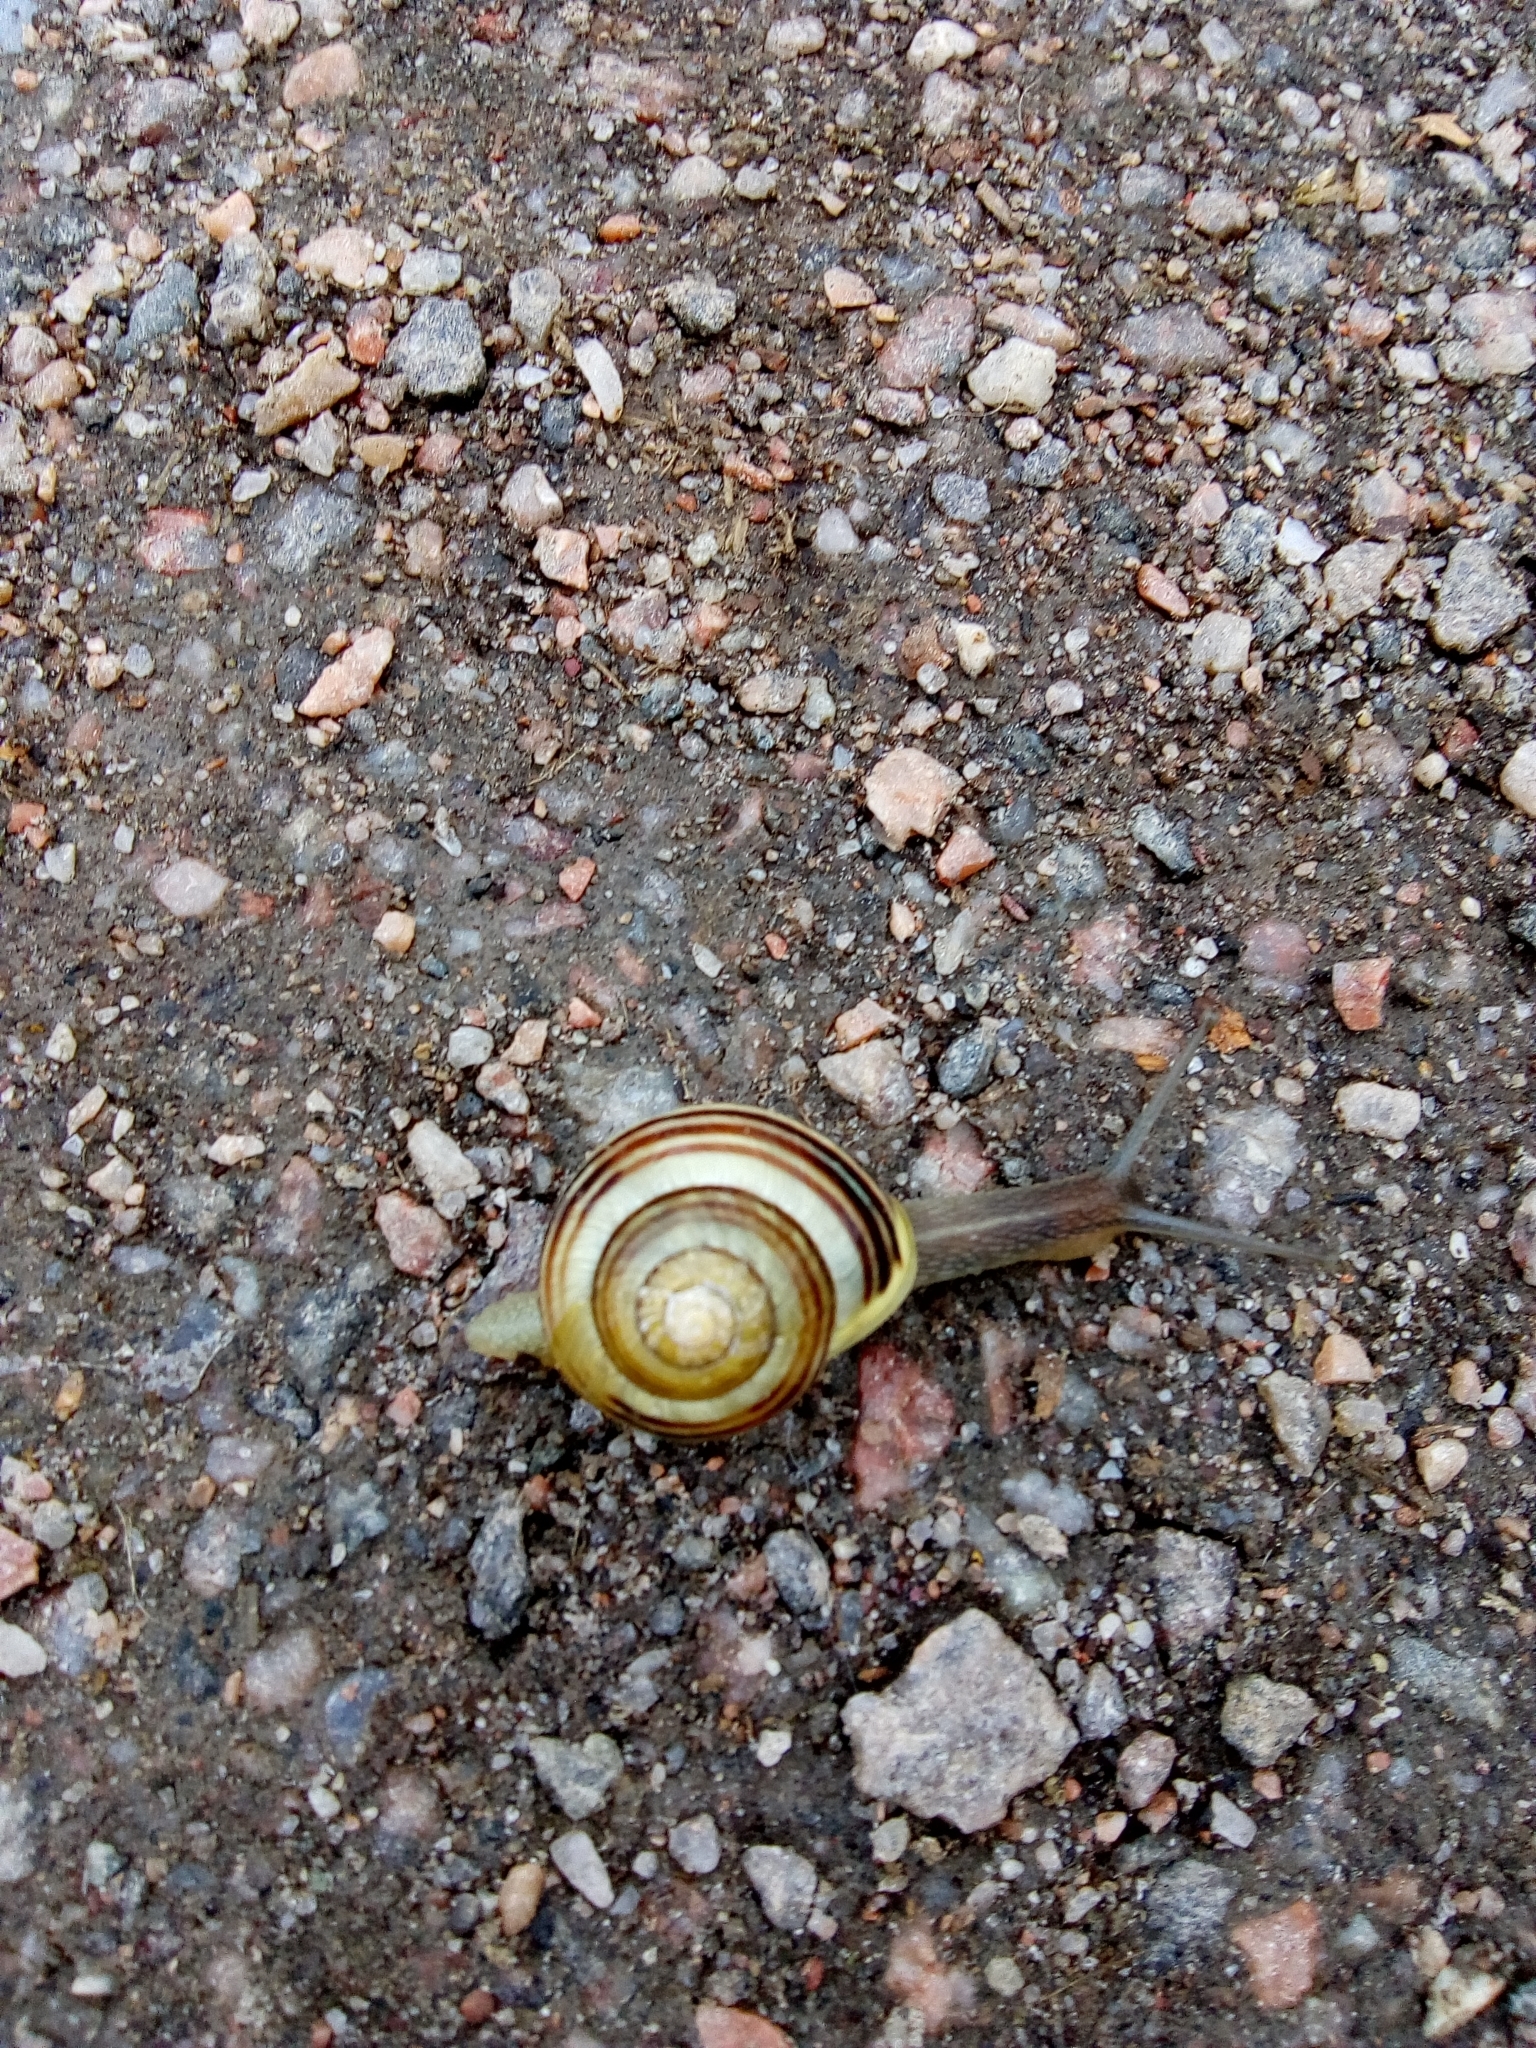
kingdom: Animalia
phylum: Mollusca
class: Gastropoda
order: Stylommatophora
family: Helicidae
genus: Cepaea
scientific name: Cepaea hortensis
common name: White-lip gardensnail
